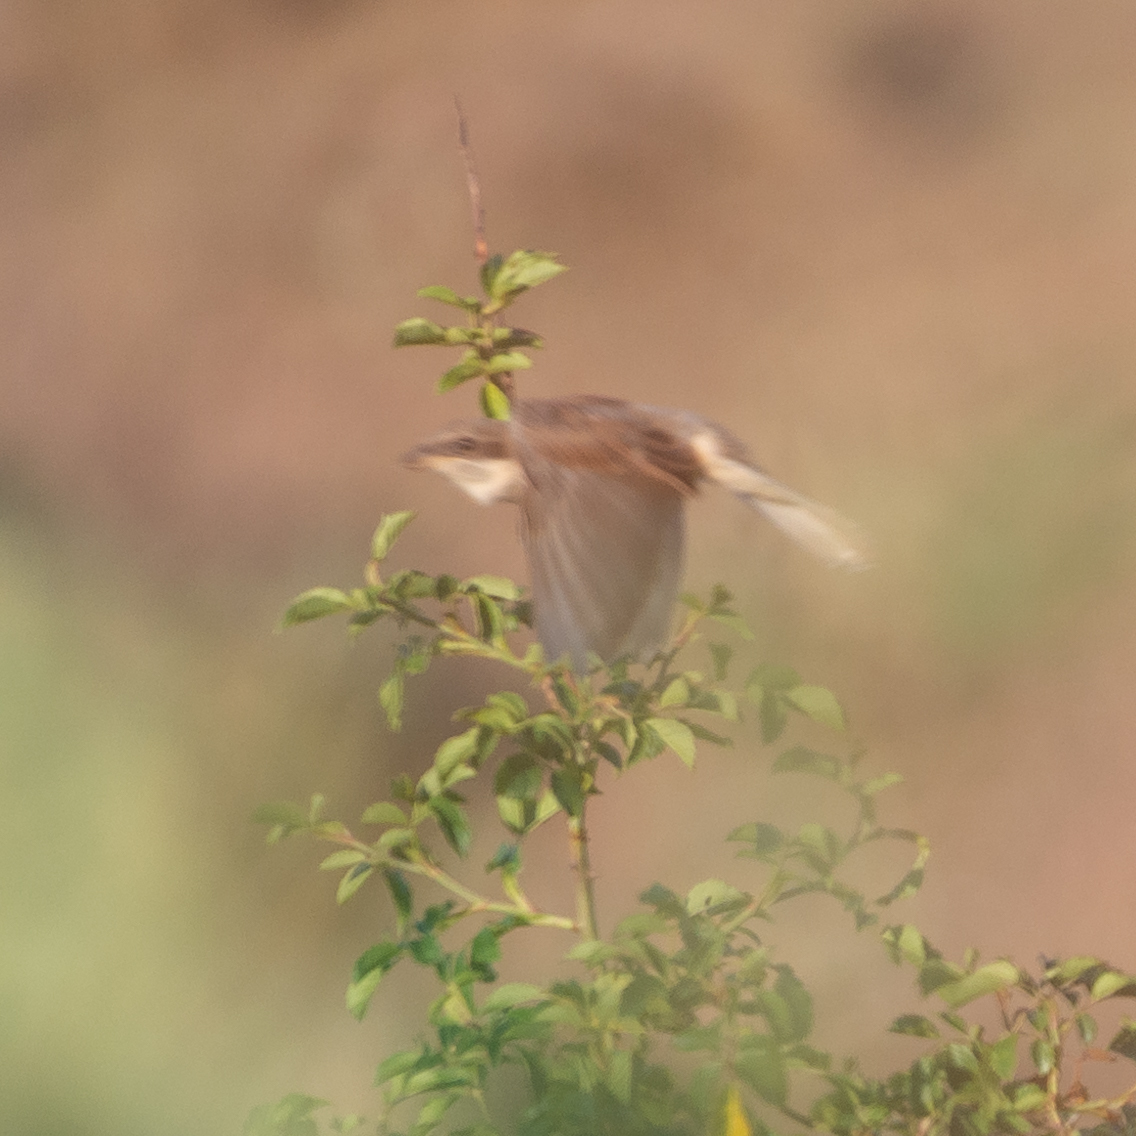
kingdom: Animalia
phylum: Chordata
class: Aves
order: Passeriformes
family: Laniidae
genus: Lanius
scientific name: Lanius collurio
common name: Red-backed shrike
